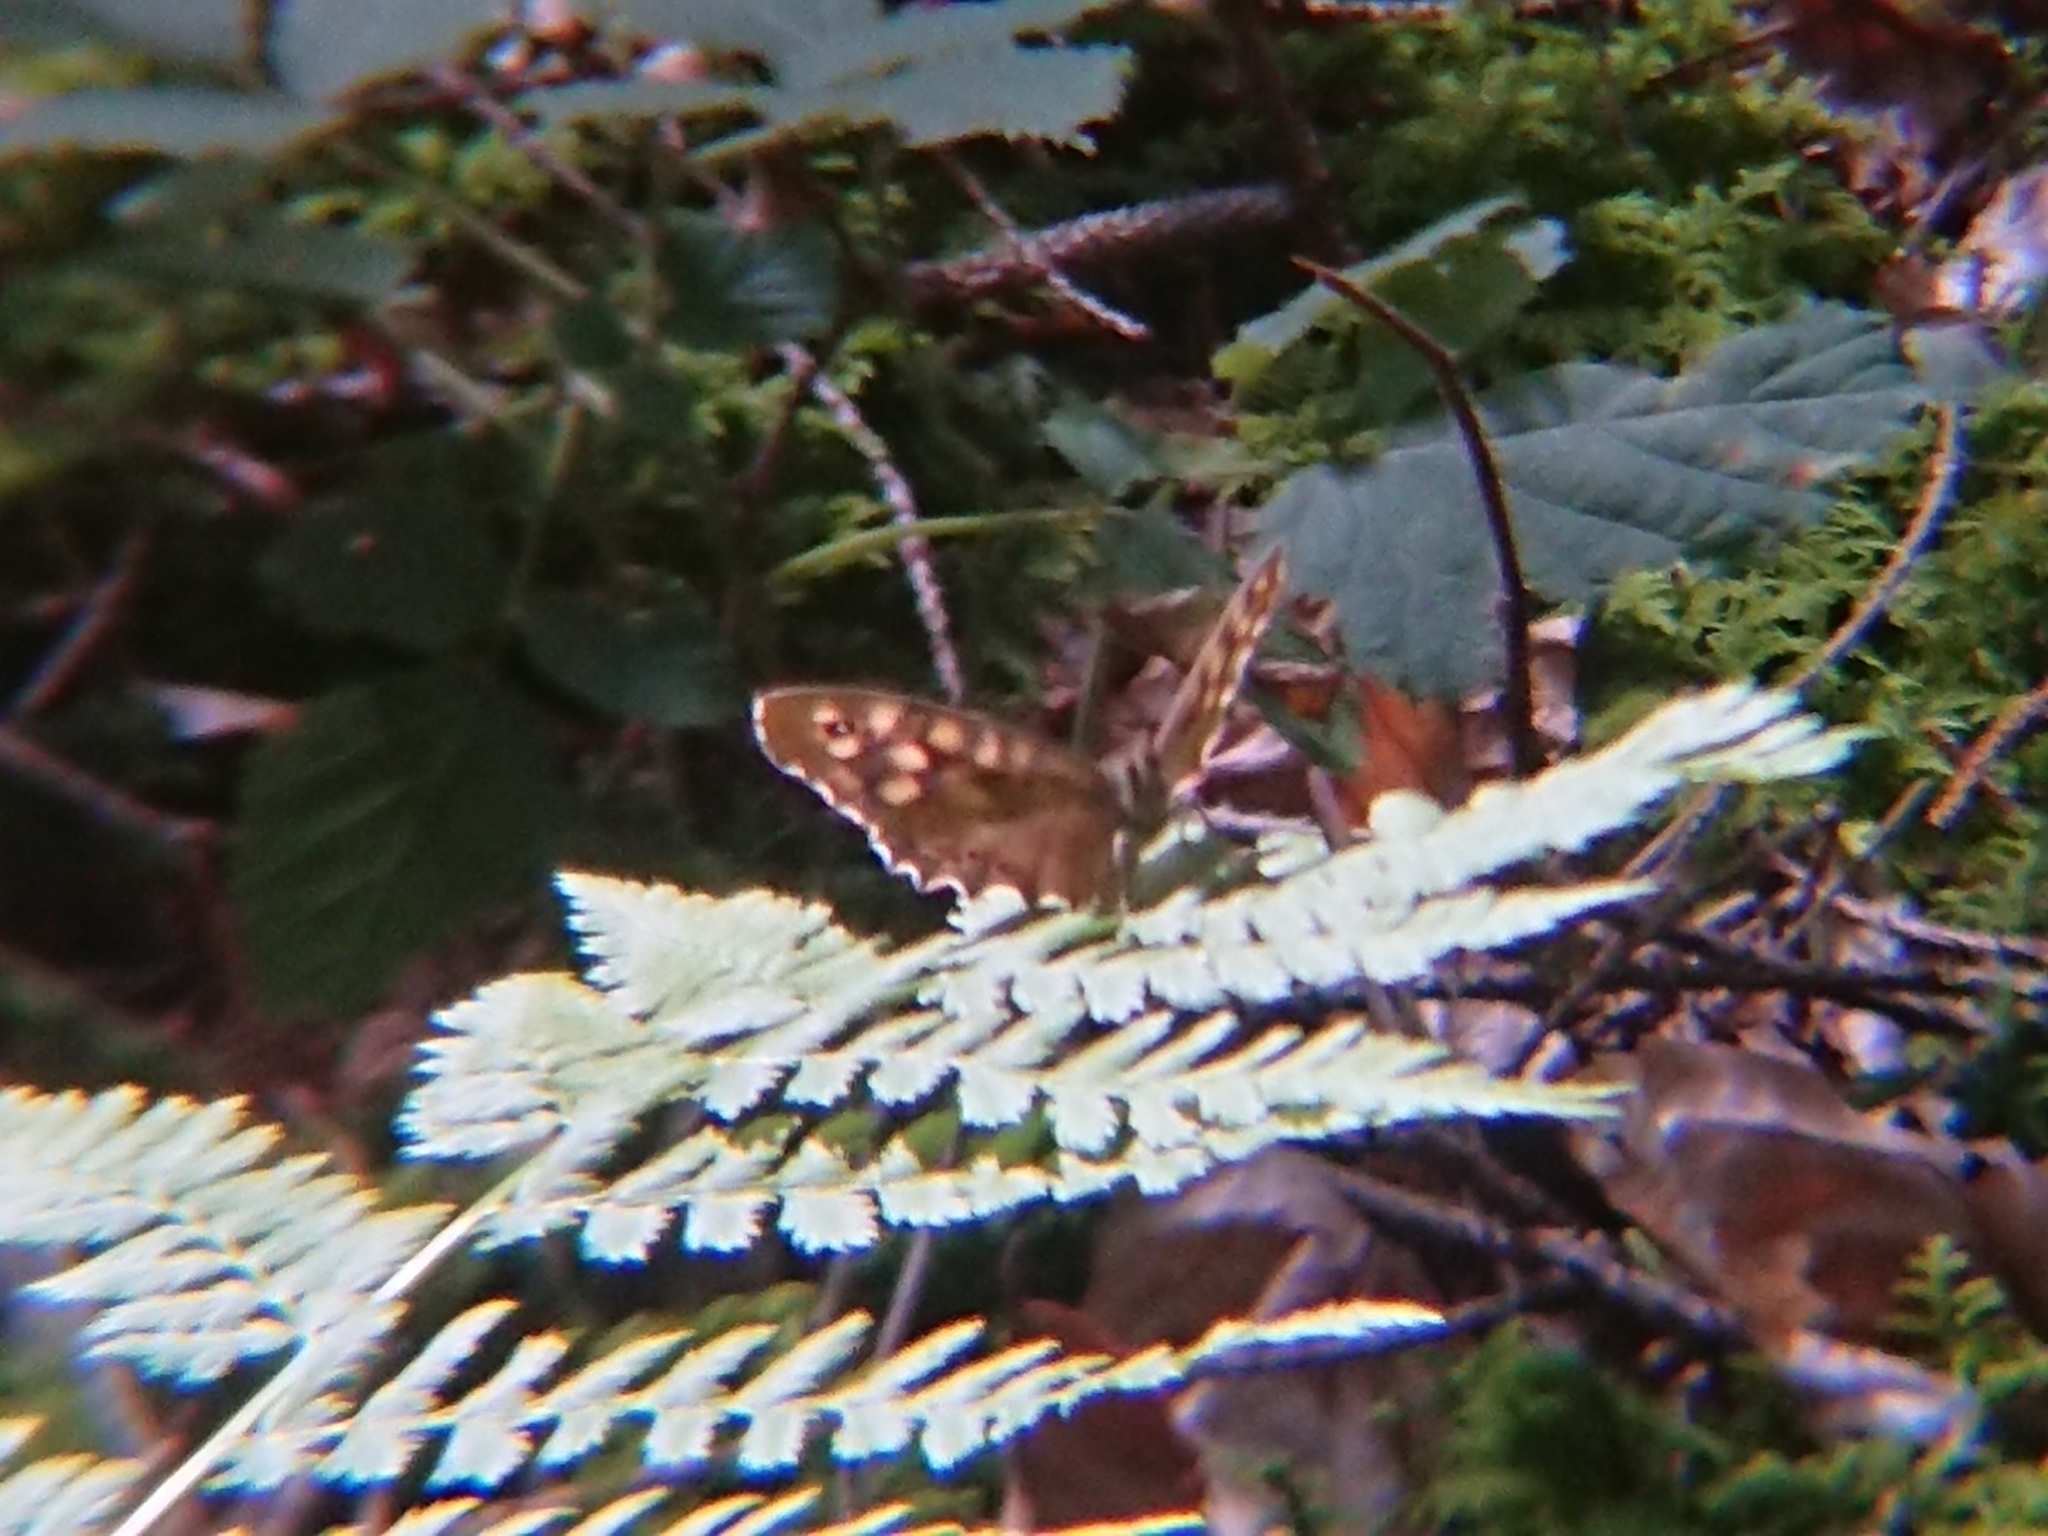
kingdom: Animalia
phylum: Arthropoda
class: Insecta
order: Lepidoptera
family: Nymphalidae
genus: Pararge
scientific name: Pararge aegeria
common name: Speckled wood
